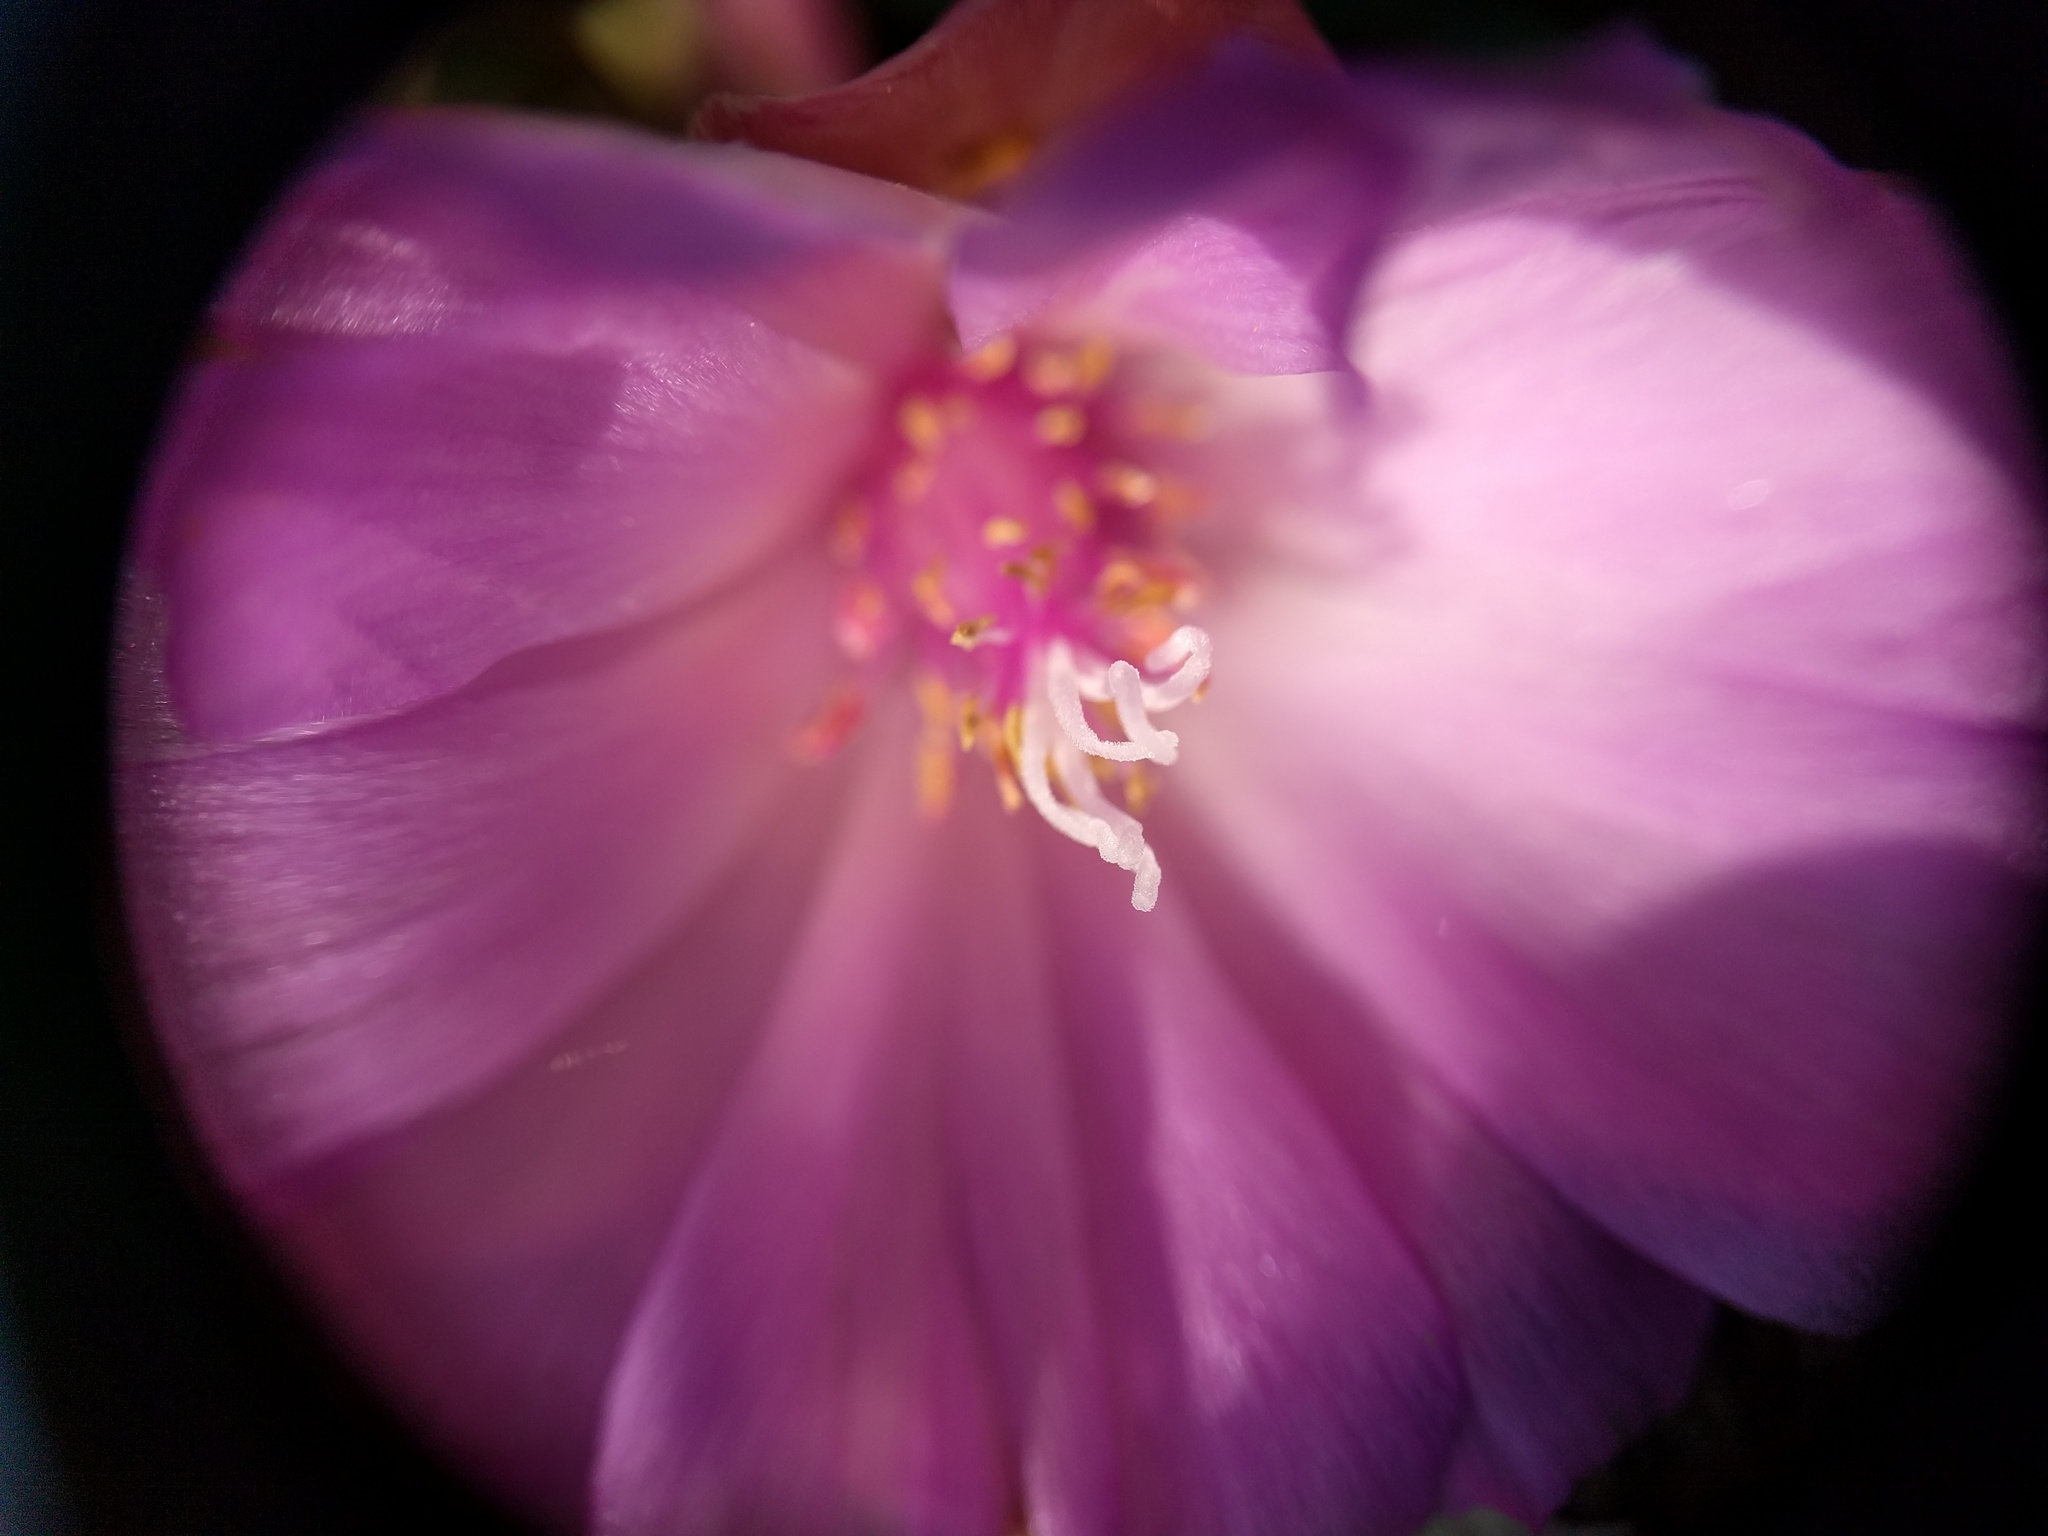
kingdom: Plantae
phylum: Tracheophyta
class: Magnoliopsida
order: Caryophyllales
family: Montiaceae
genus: Lewisia
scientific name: Lewisia rediviva
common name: Bitter-root
